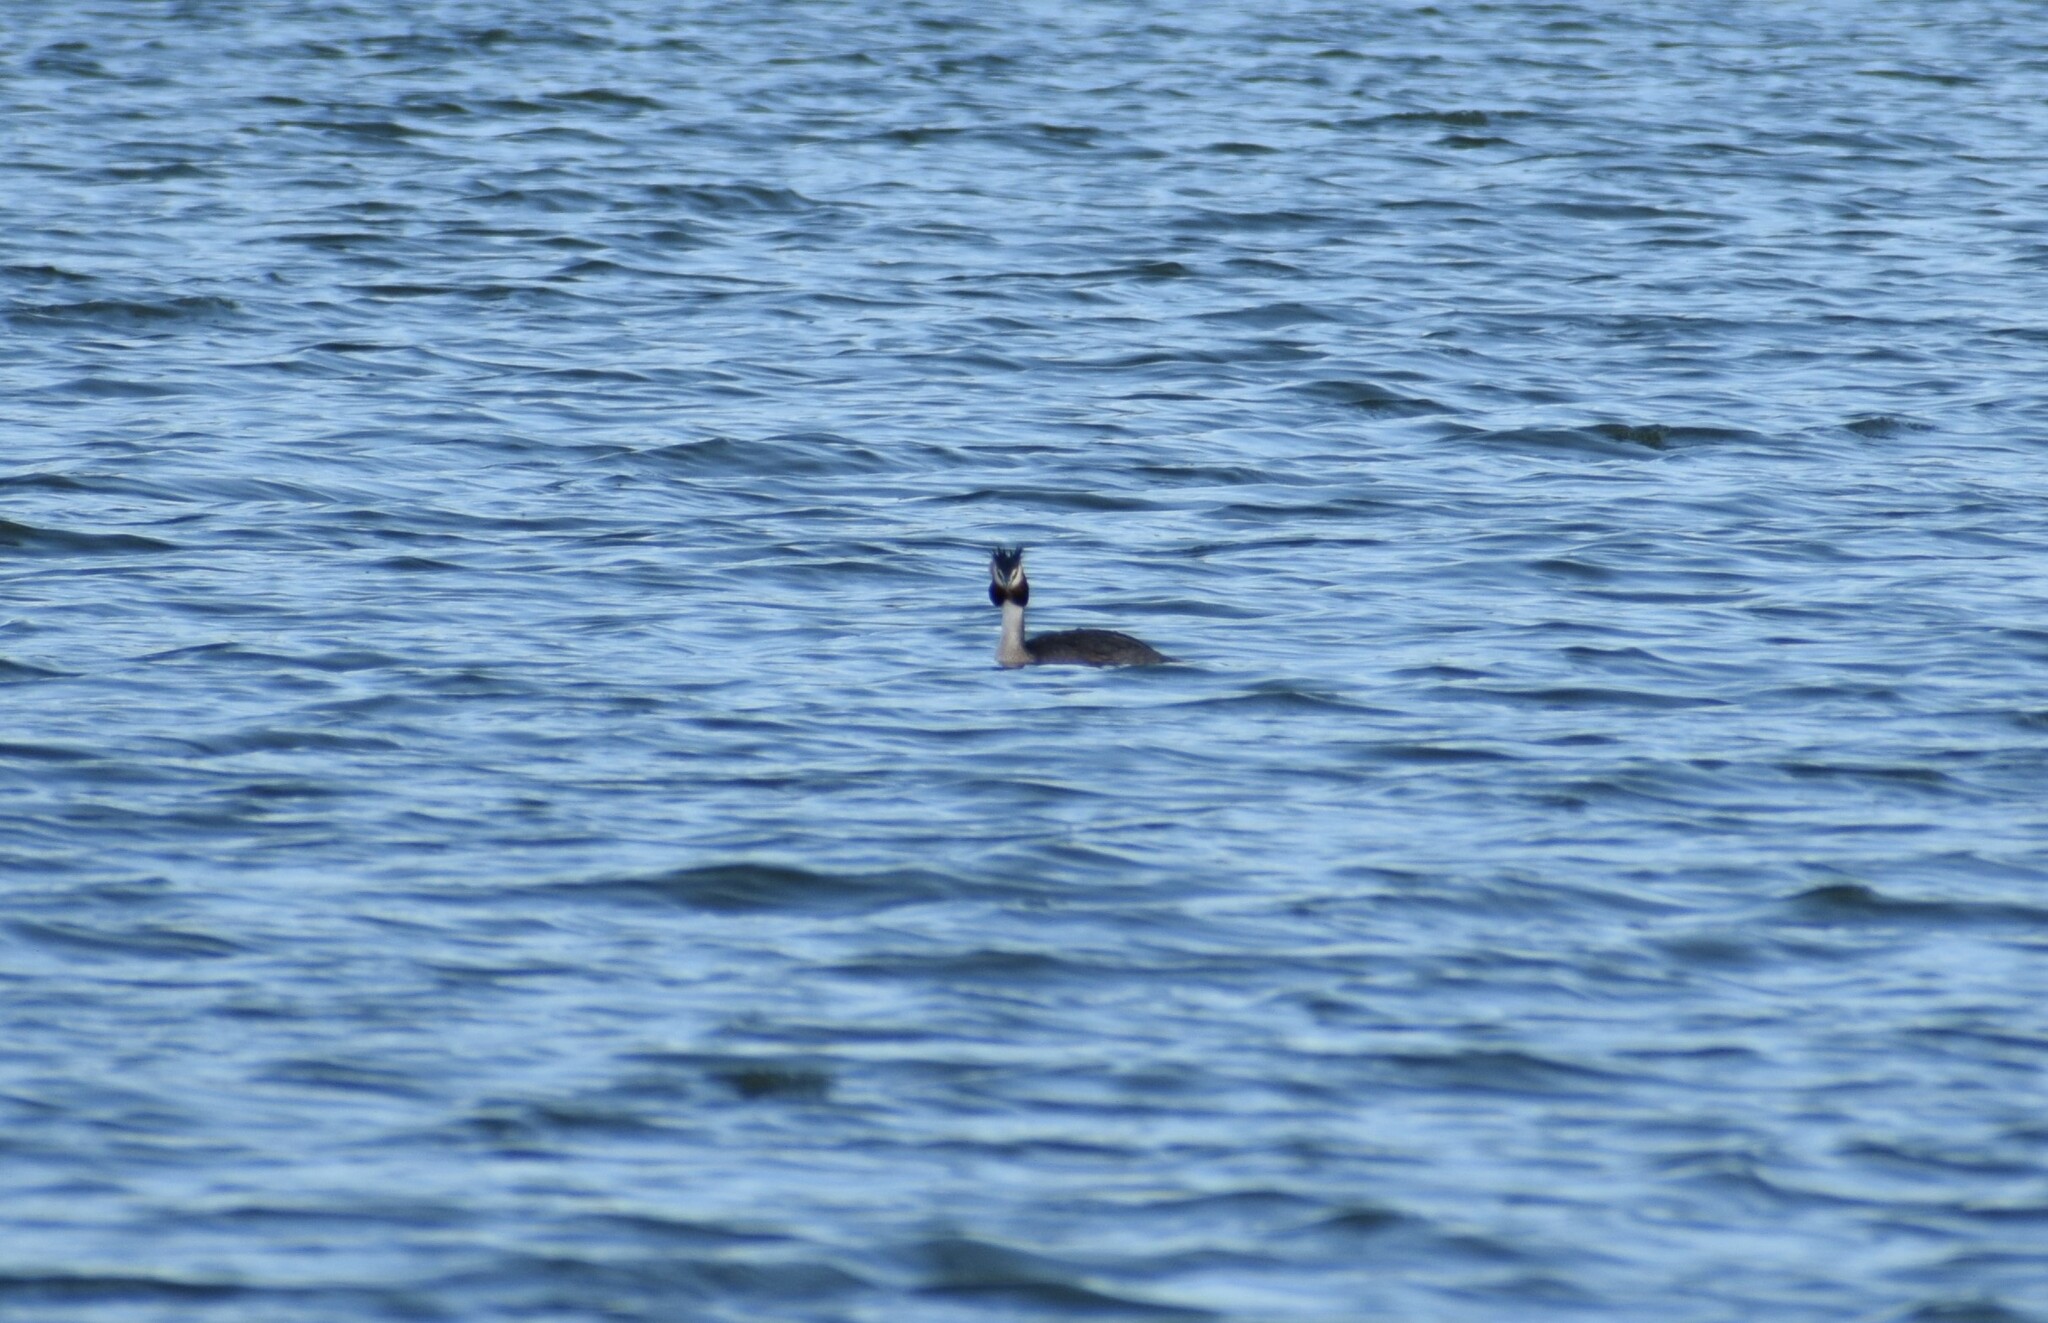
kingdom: Animalia
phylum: Chordata
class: Aves
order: Podicipediformes
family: Podicipedidae
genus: Podiceps
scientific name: Podiceps cristatus
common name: Great crested grebe
